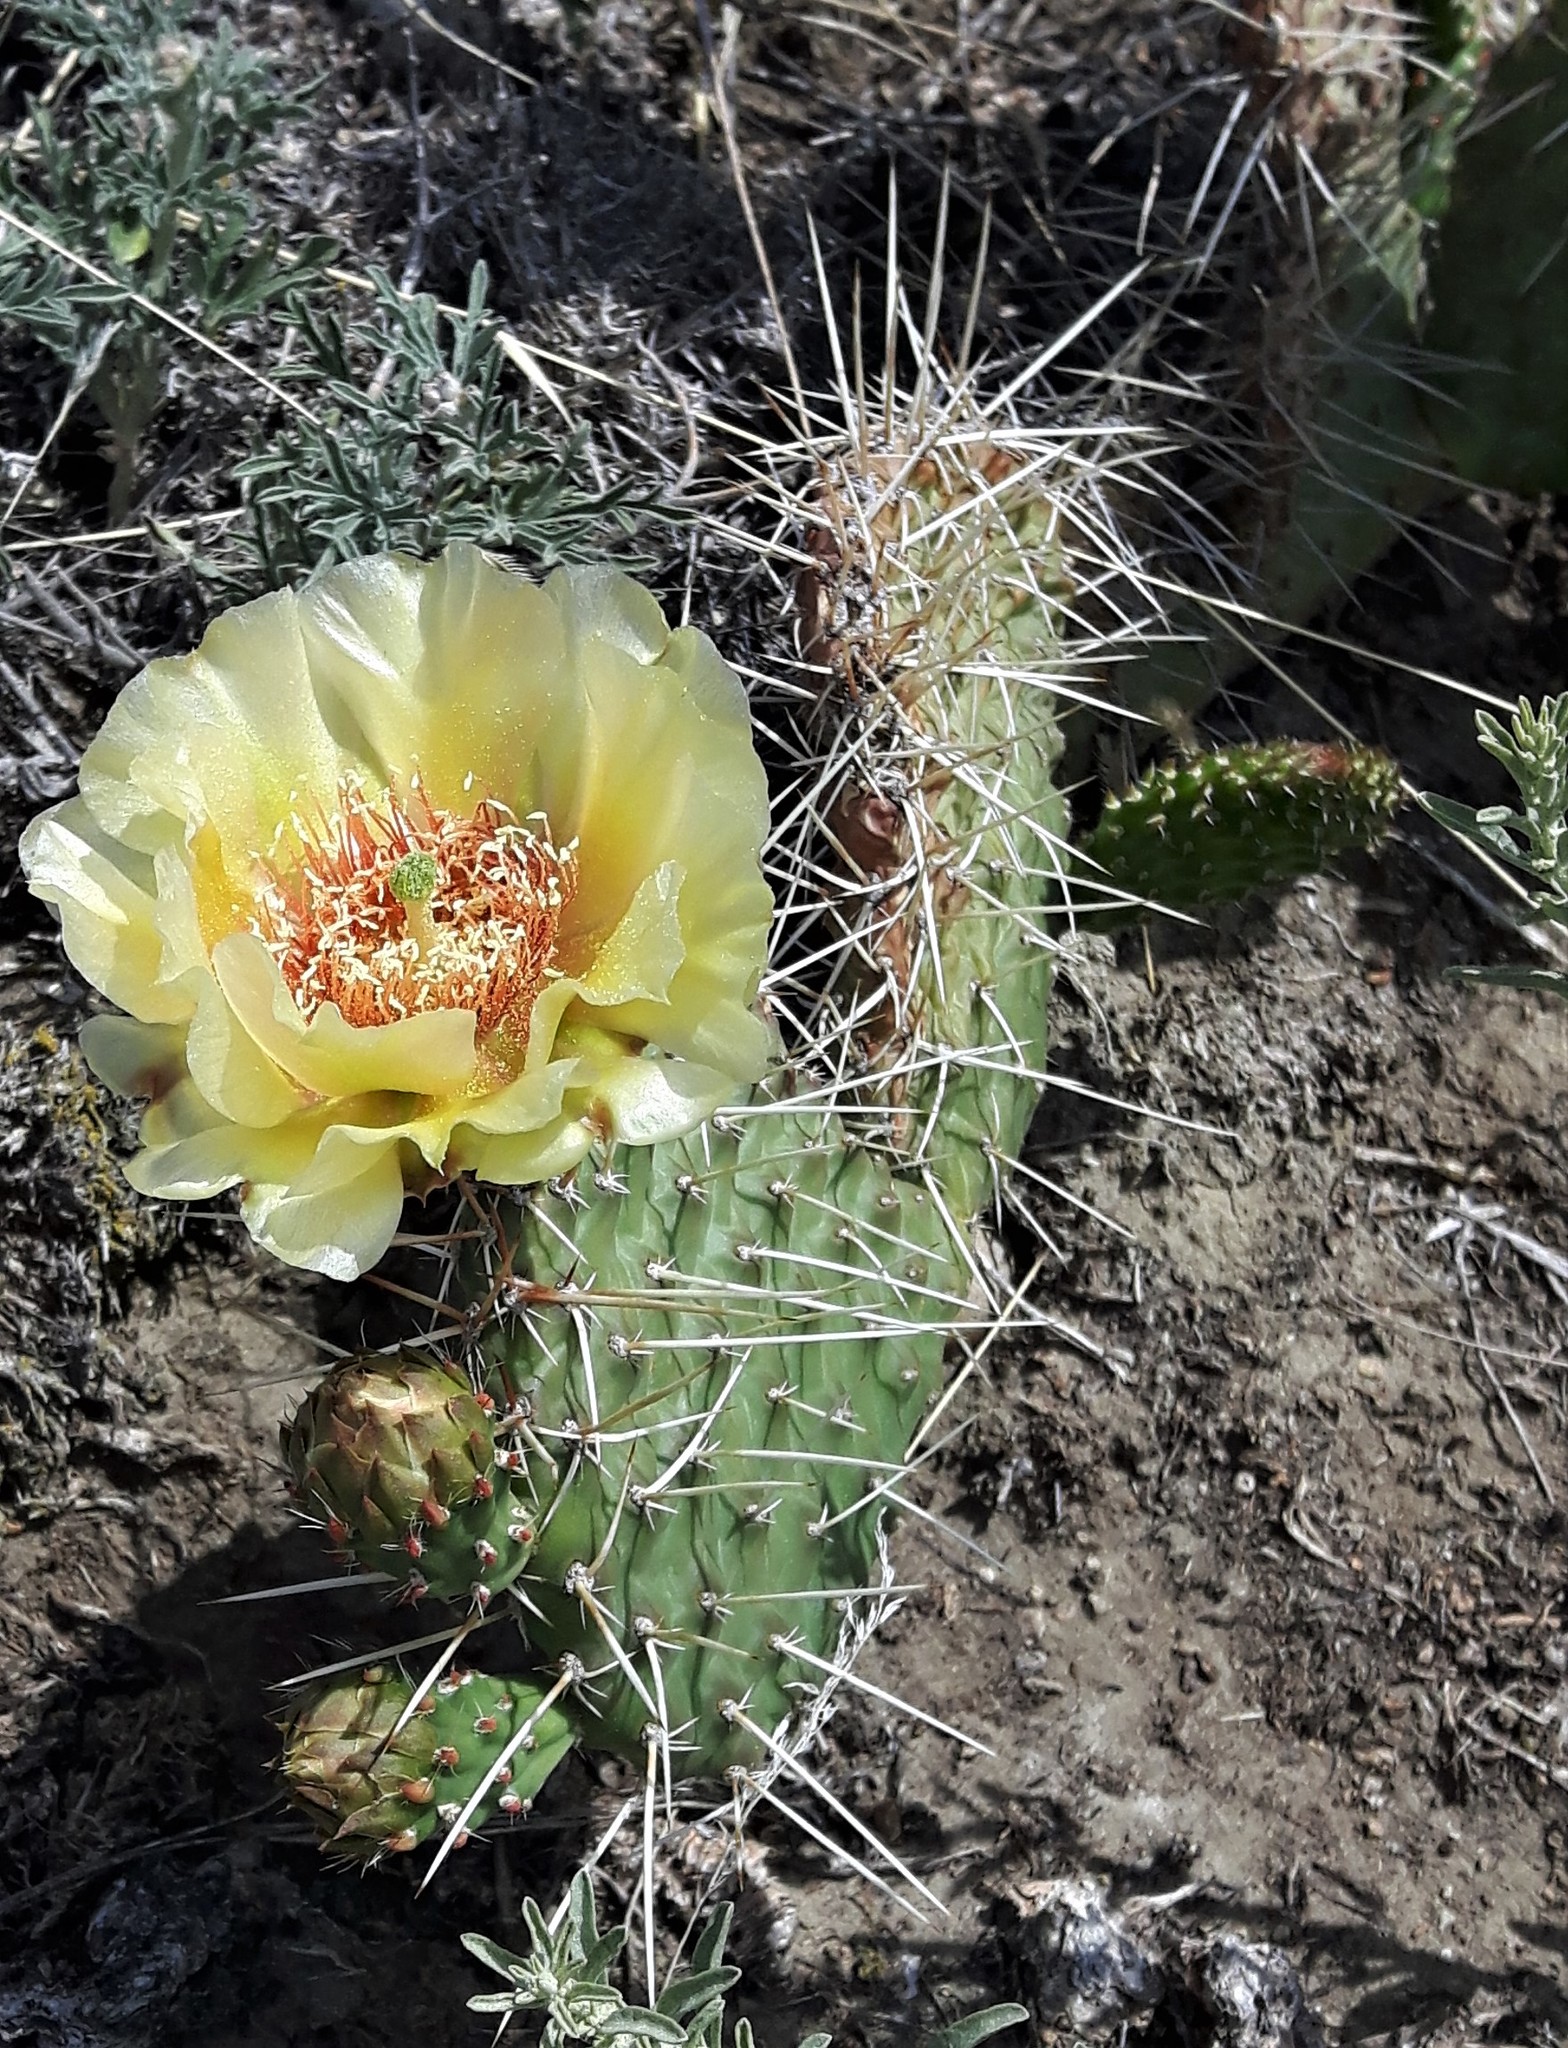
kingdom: Plantae
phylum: Tracheophyta
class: Magnoliopsida
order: Caryophyllales
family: Cactaceae
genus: Opuntia
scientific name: Opuntia polyacantha
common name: Plains prickly-pear
